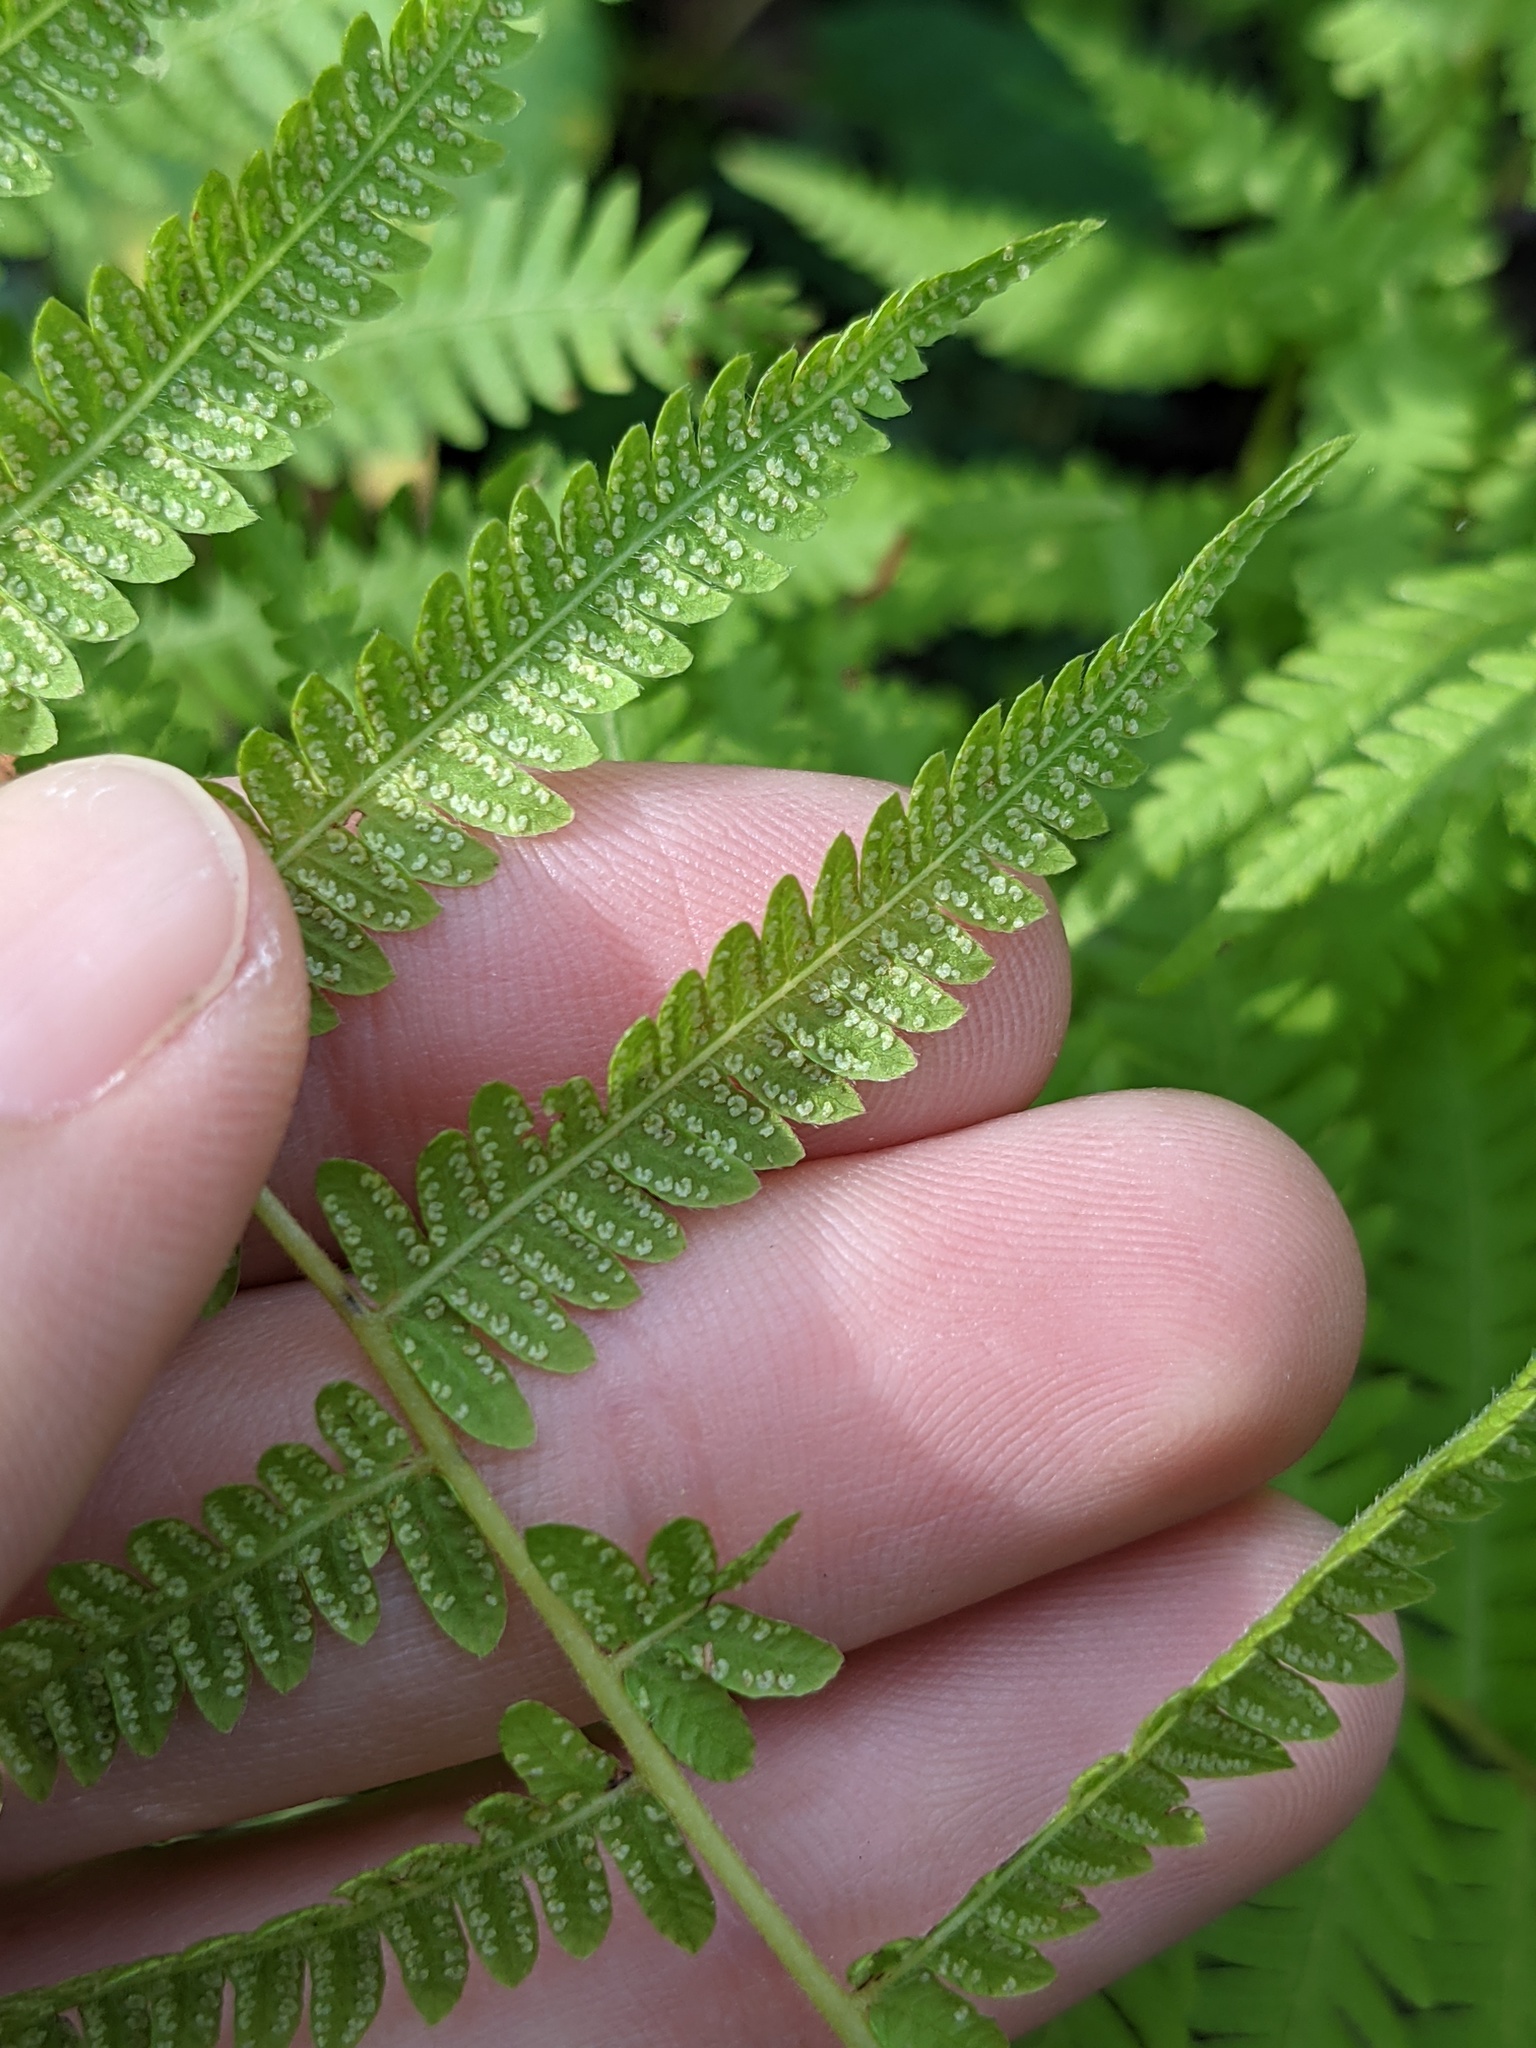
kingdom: Plantae
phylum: Tracheophyta
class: Polypodiopsida
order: Polypodiales
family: Thelypteridaceae
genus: Amauropelta
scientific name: Amauropelta noveboracensis
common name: New york fern
